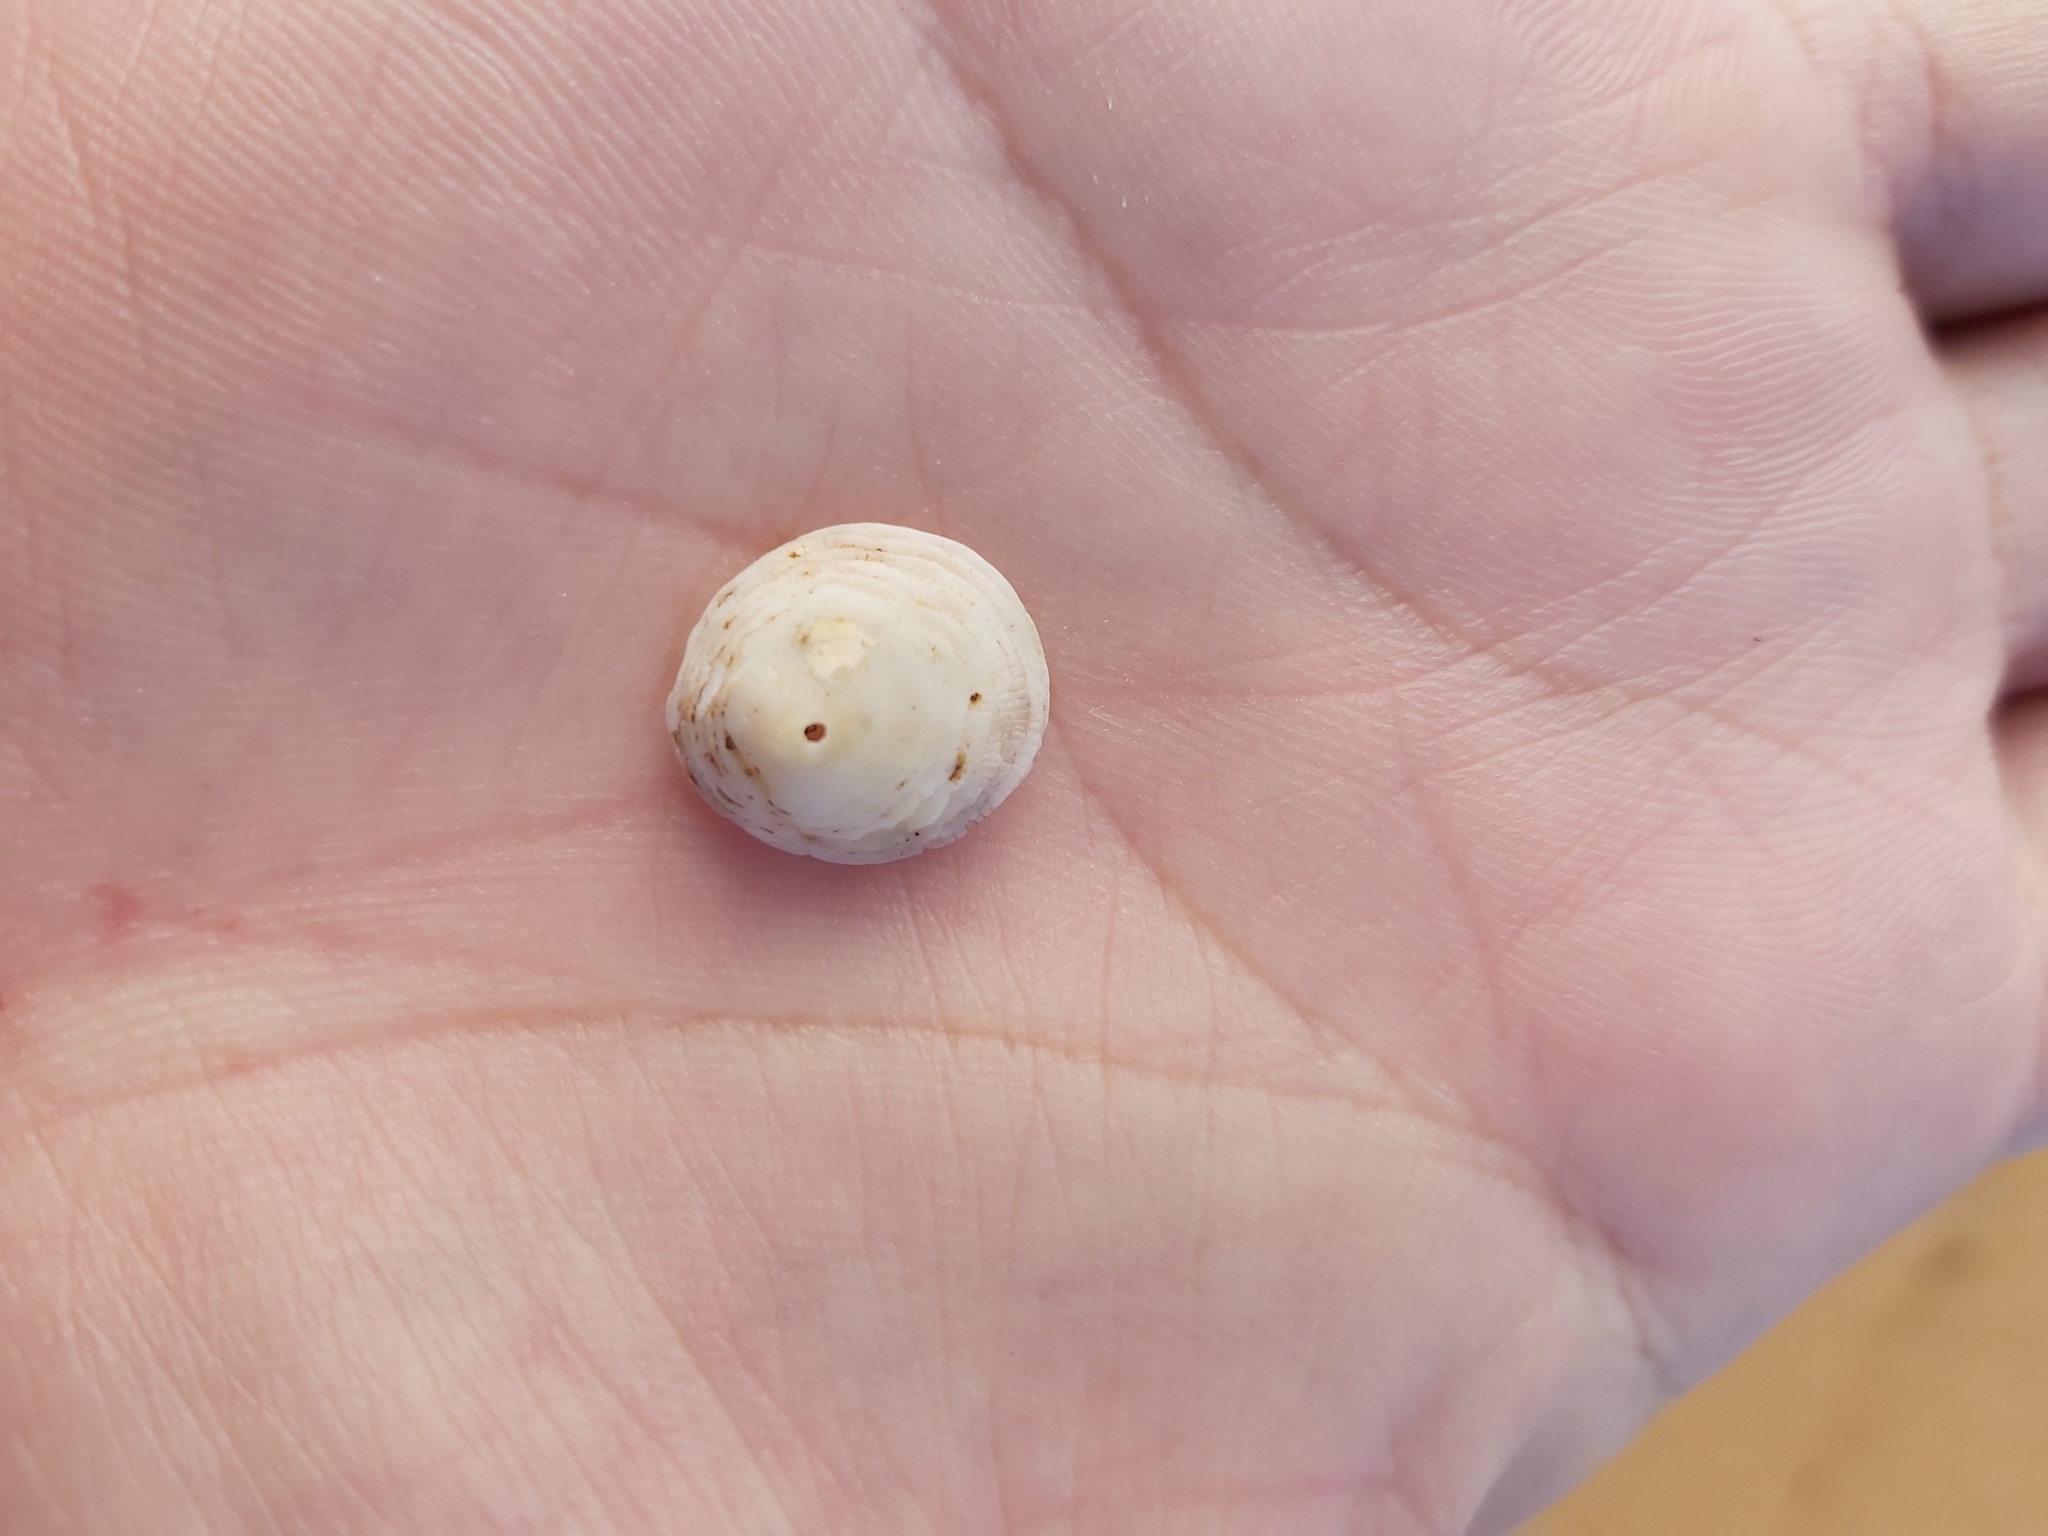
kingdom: Animalia
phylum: Mollusca
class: Gastropoda
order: Littorinimorpha
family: Hipponicidae
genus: Antisabia
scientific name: Antisabia foliacea
